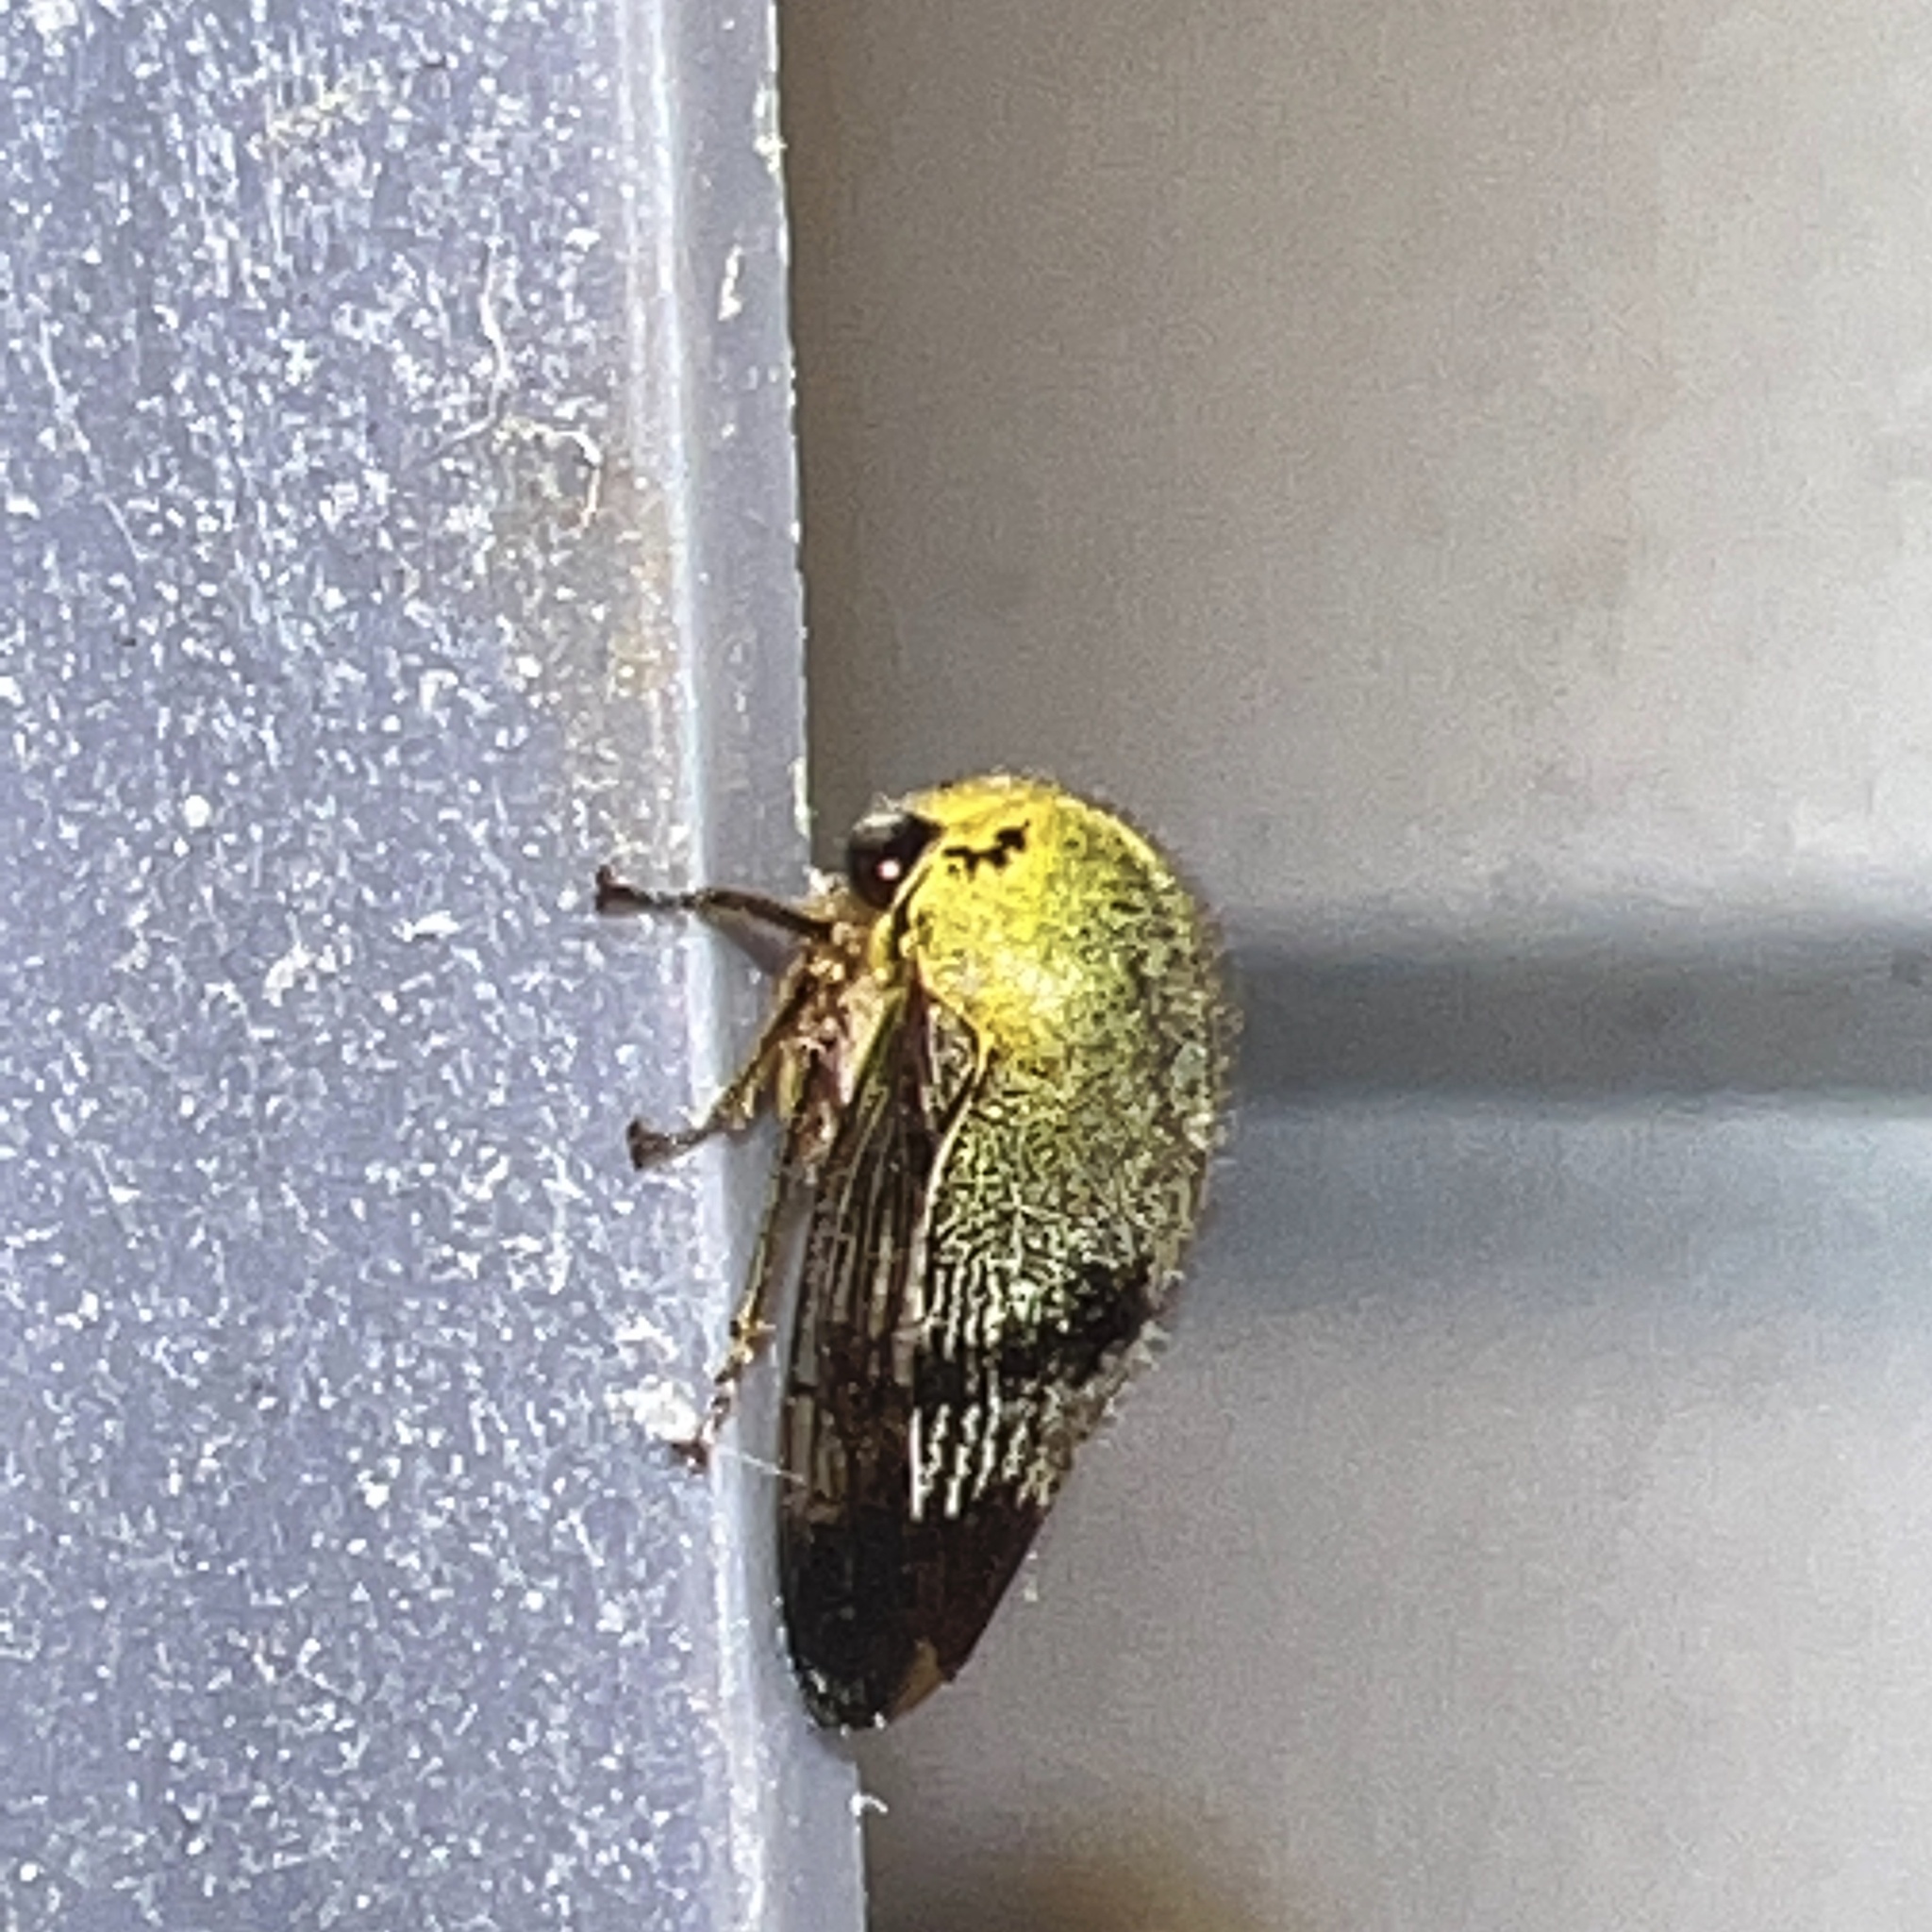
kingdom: Animalia
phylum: Arthropoda
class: Insecta
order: Hemiptera
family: Membracidae
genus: Carynota
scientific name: Carynota mera
